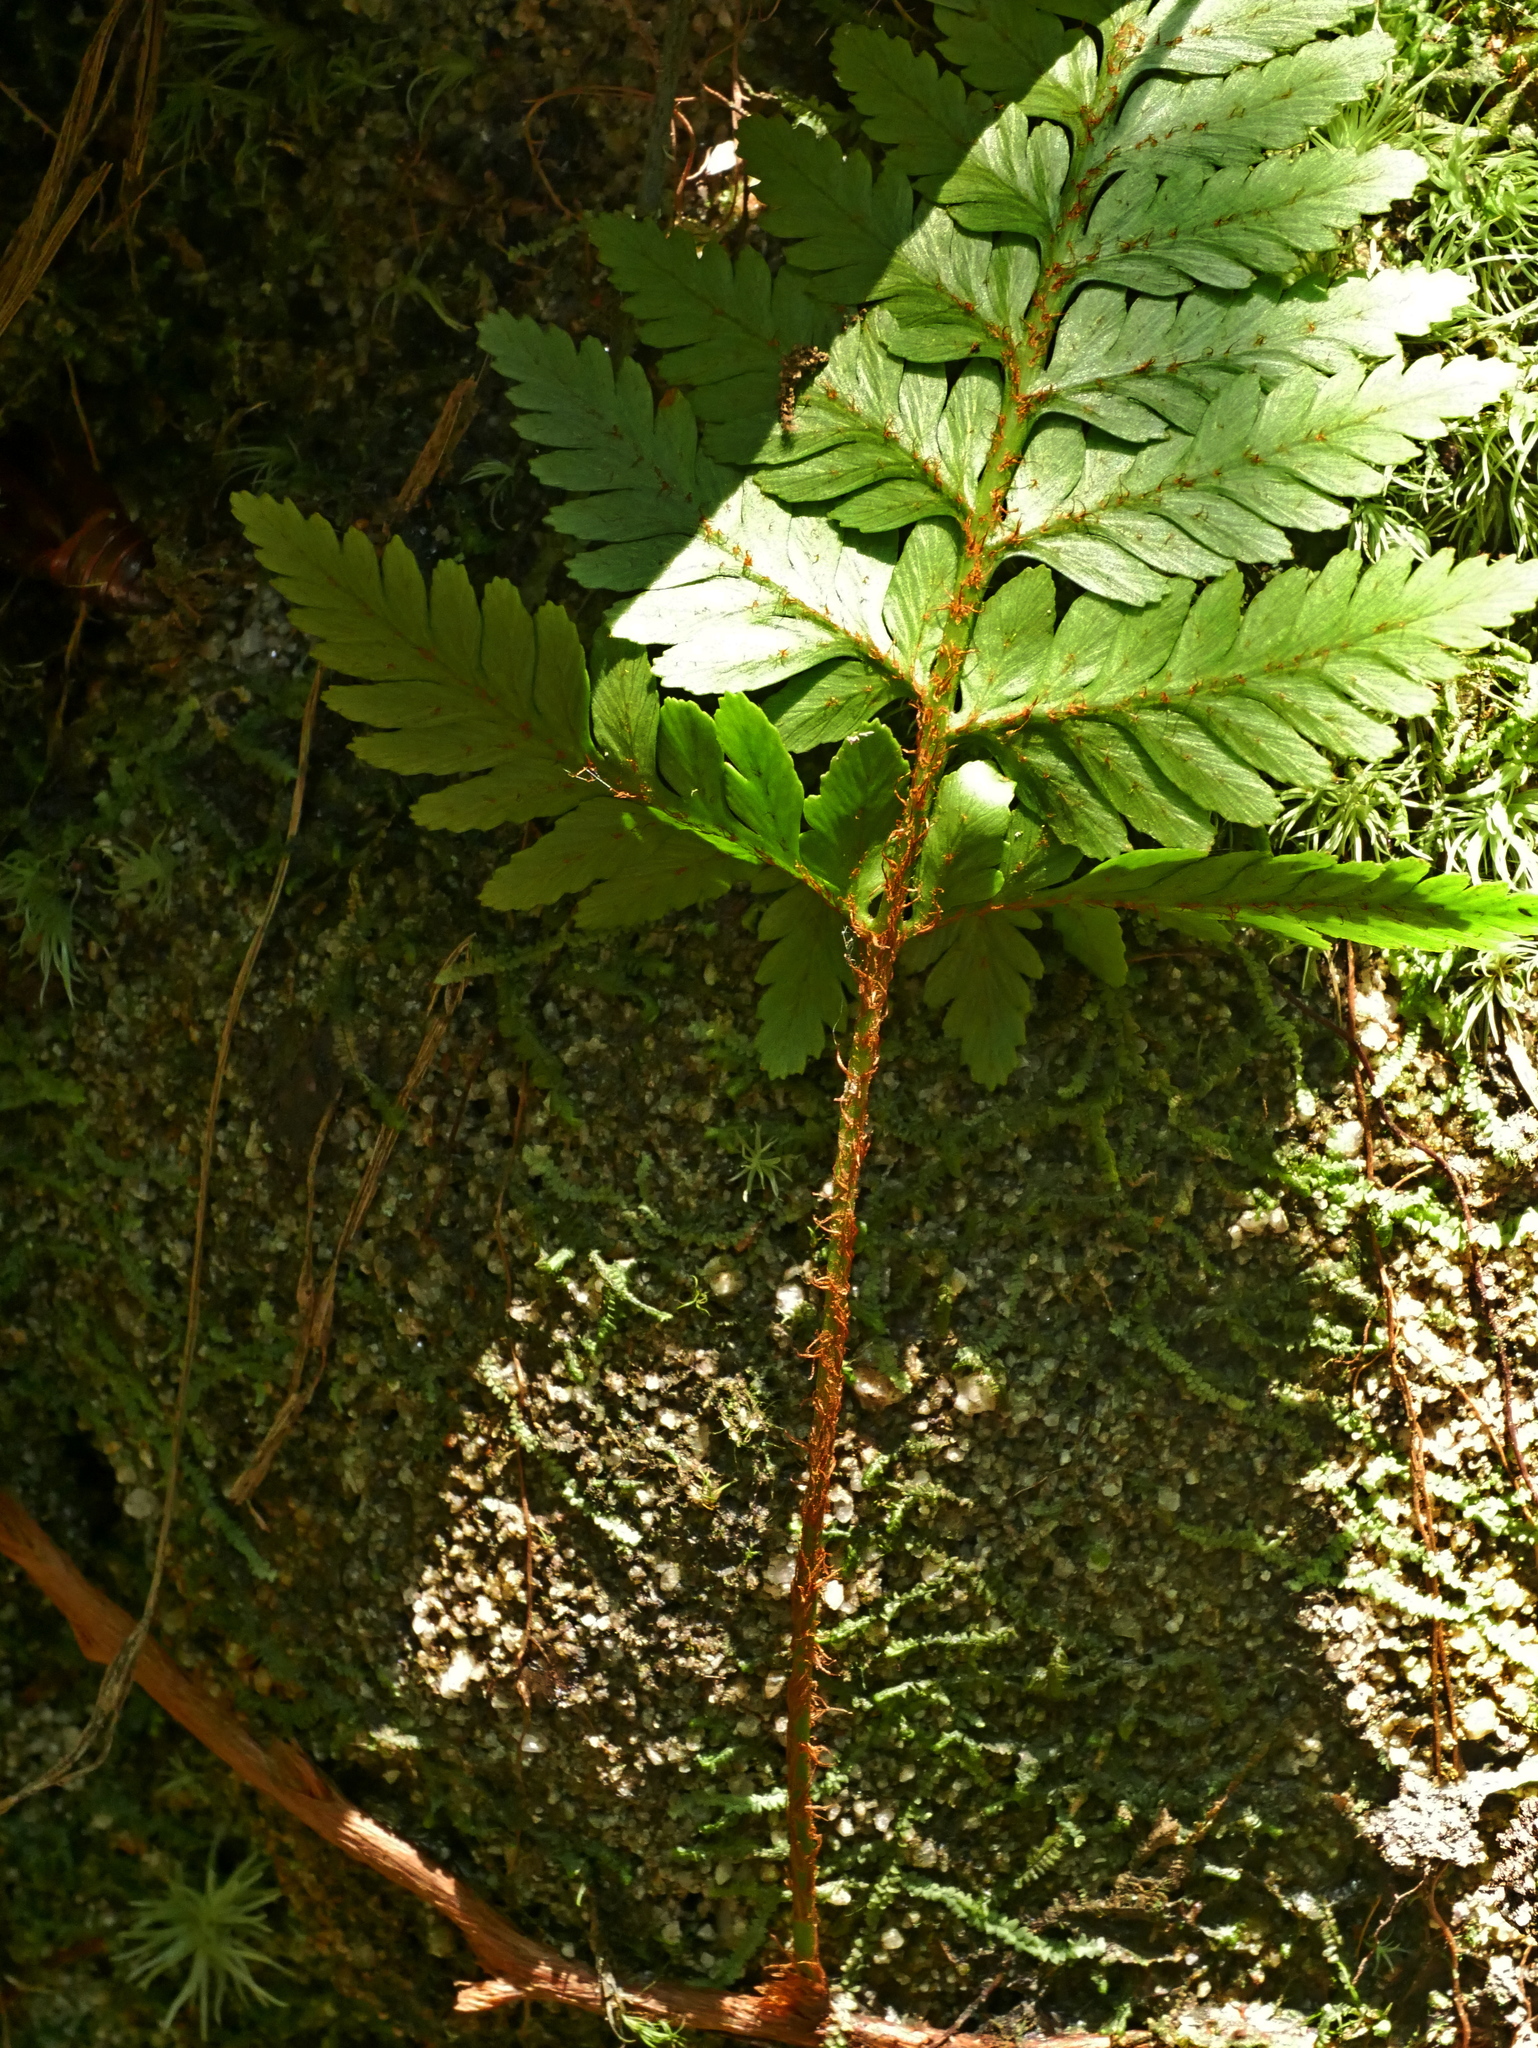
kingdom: Plantae
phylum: Tracheophyta
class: Polypodiopsida
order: Polypodiales
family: Davalliaceae
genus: Davallia
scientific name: Davallia repens
